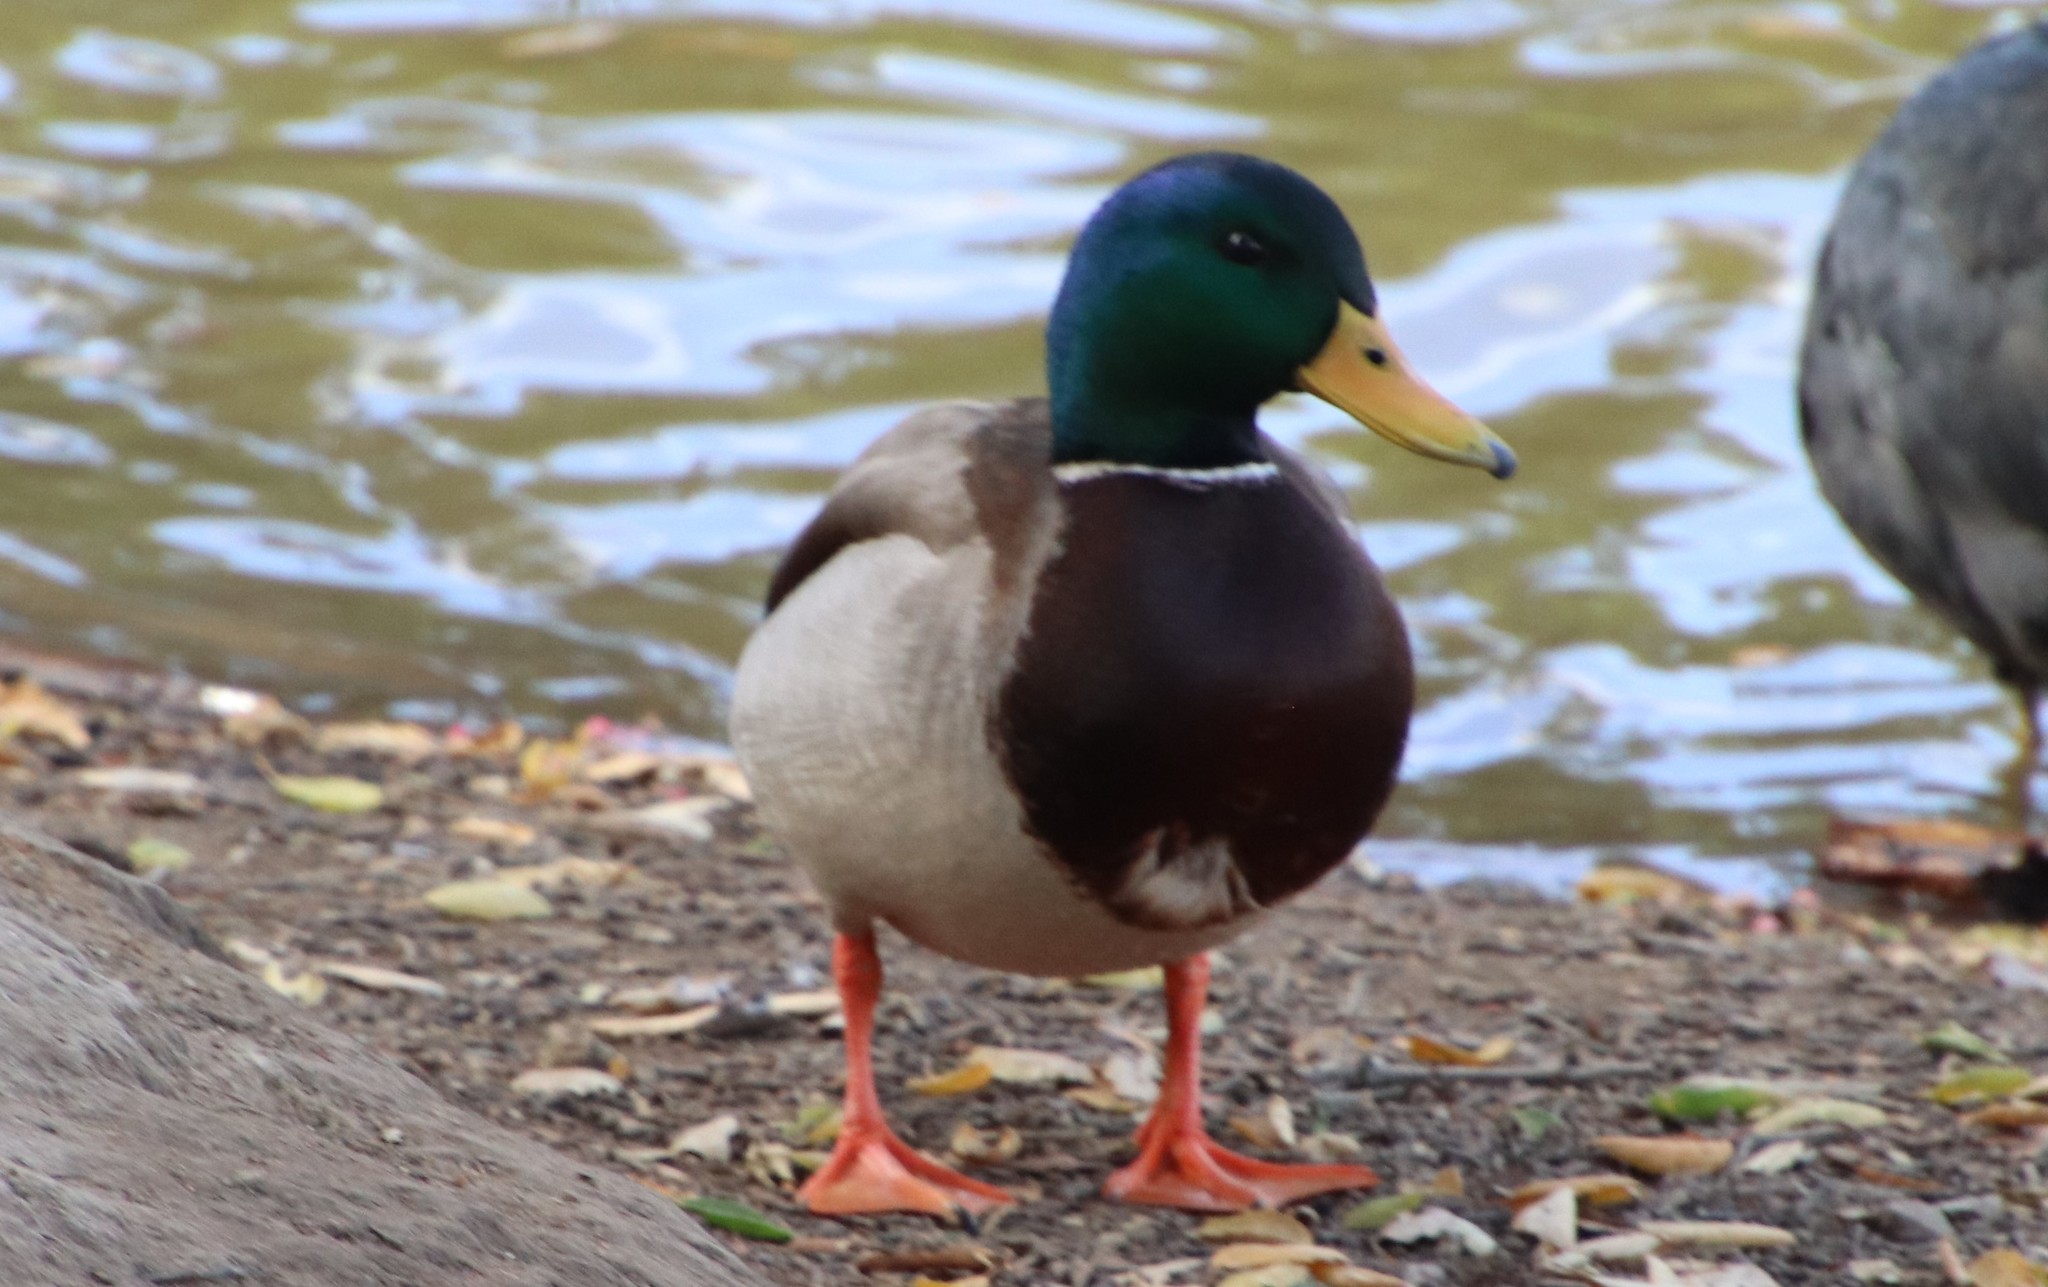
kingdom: Animalia
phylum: Chordata
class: Aves
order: Anseriformes
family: Anatidae
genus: Anas
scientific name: Anas platyrhynchos
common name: Mallard
